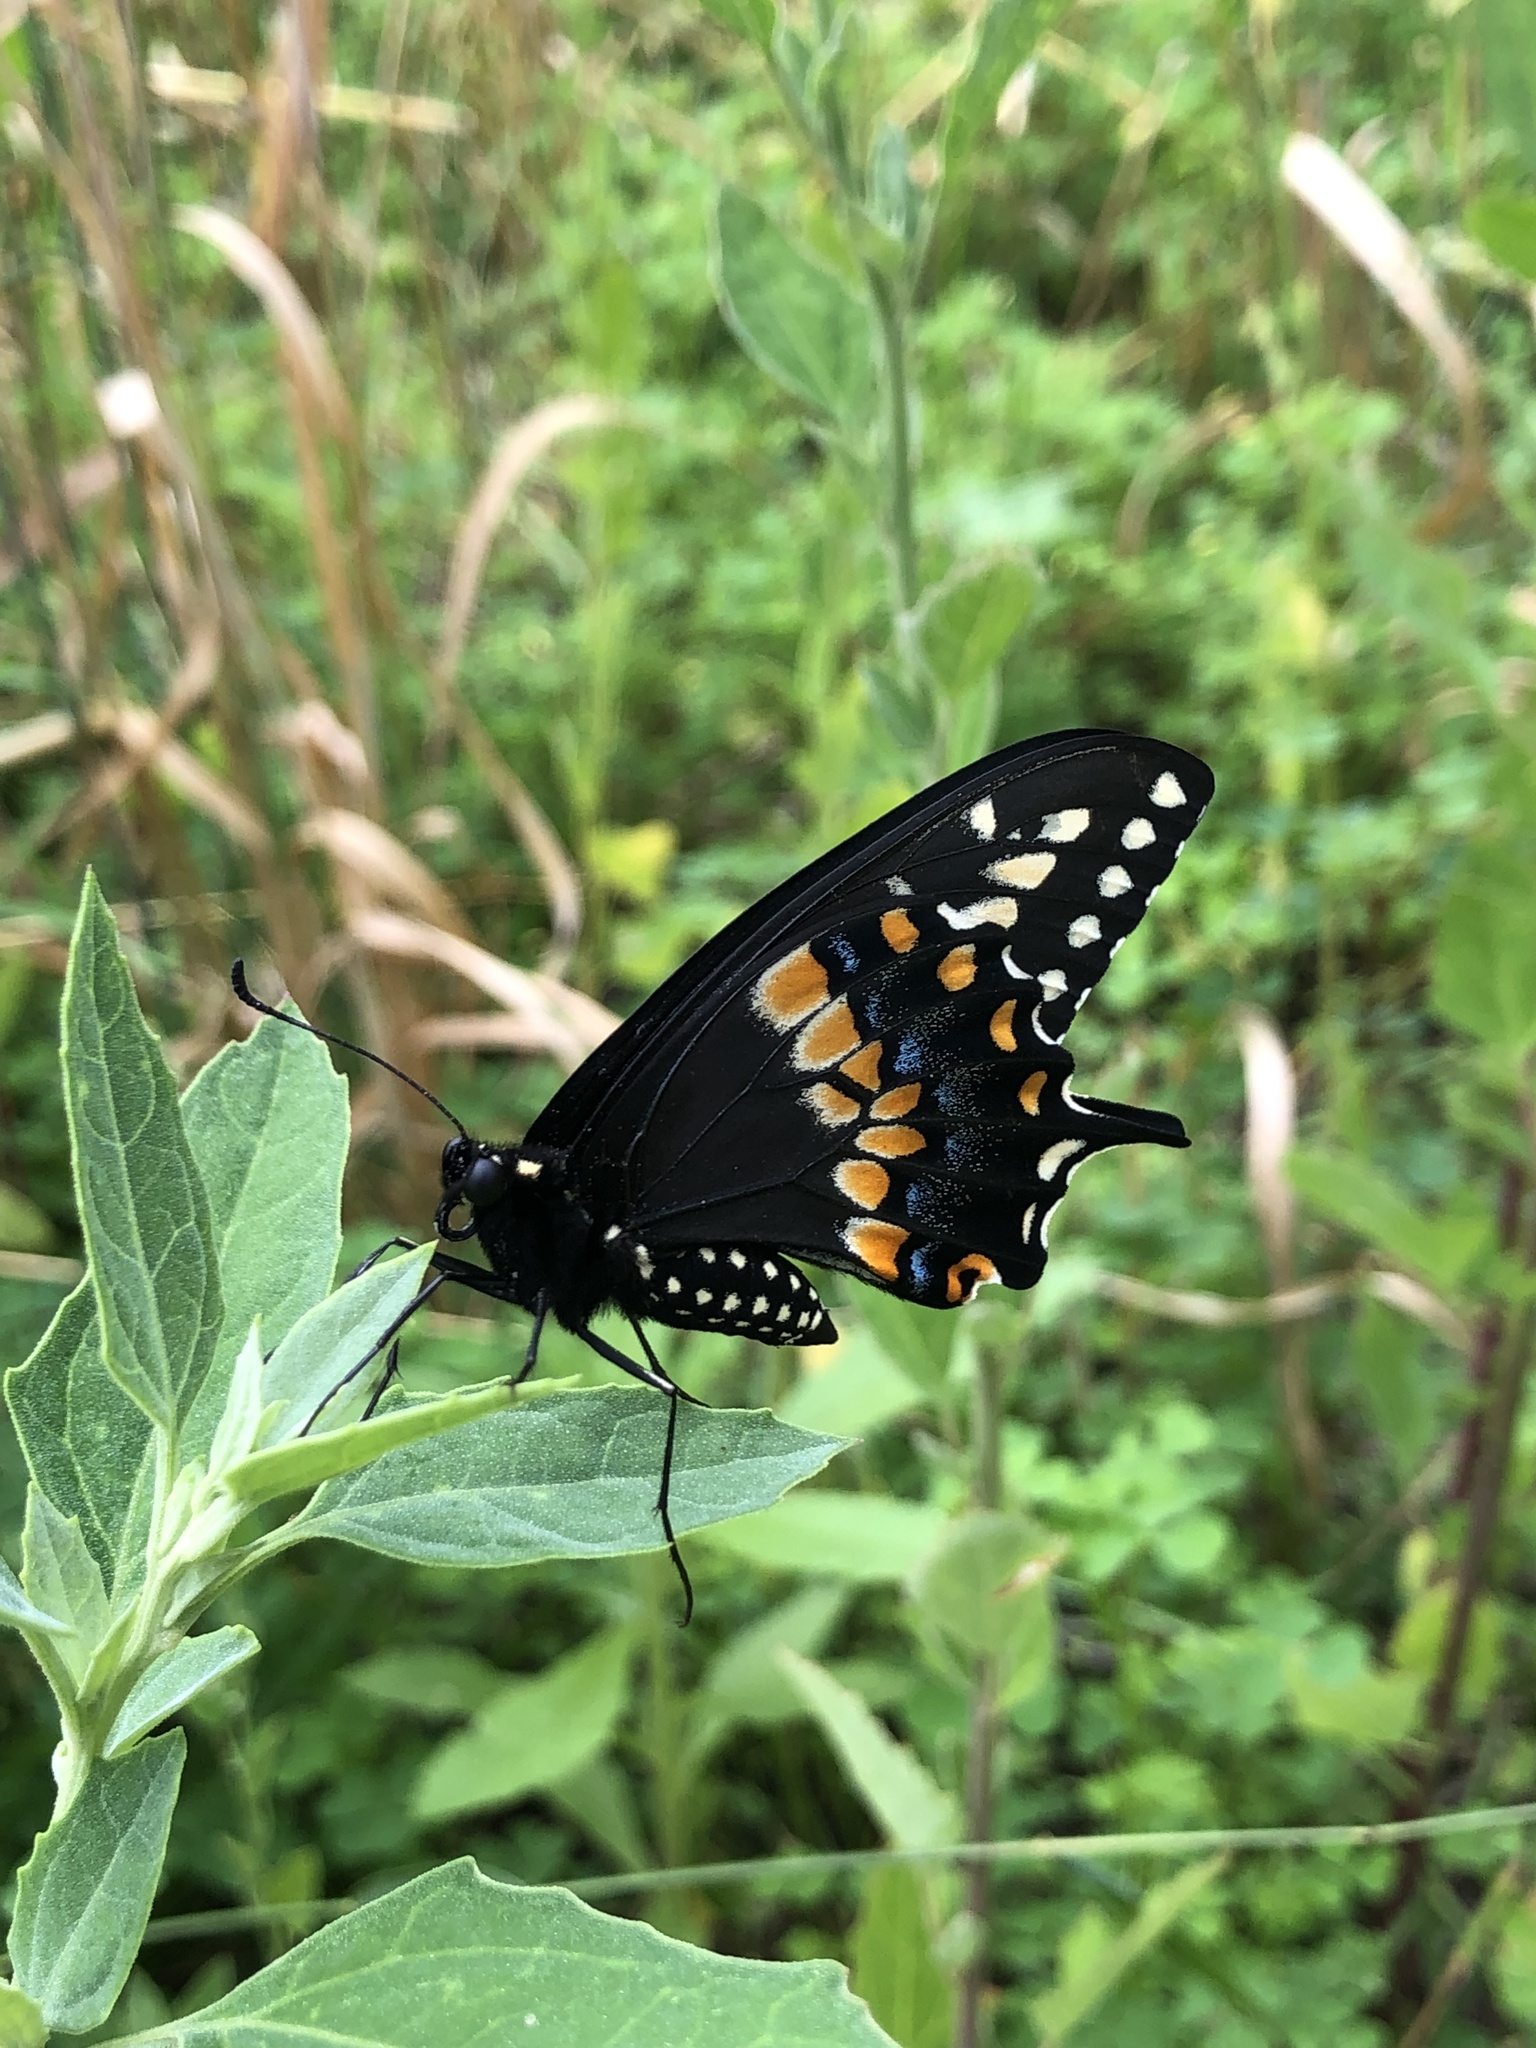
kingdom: Animalia
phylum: Arthropoda
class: Insecta
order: Lepidoptera
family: Papilionidae
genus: Papilio
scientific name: Papilio polyxenes
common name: Black swallowtail
